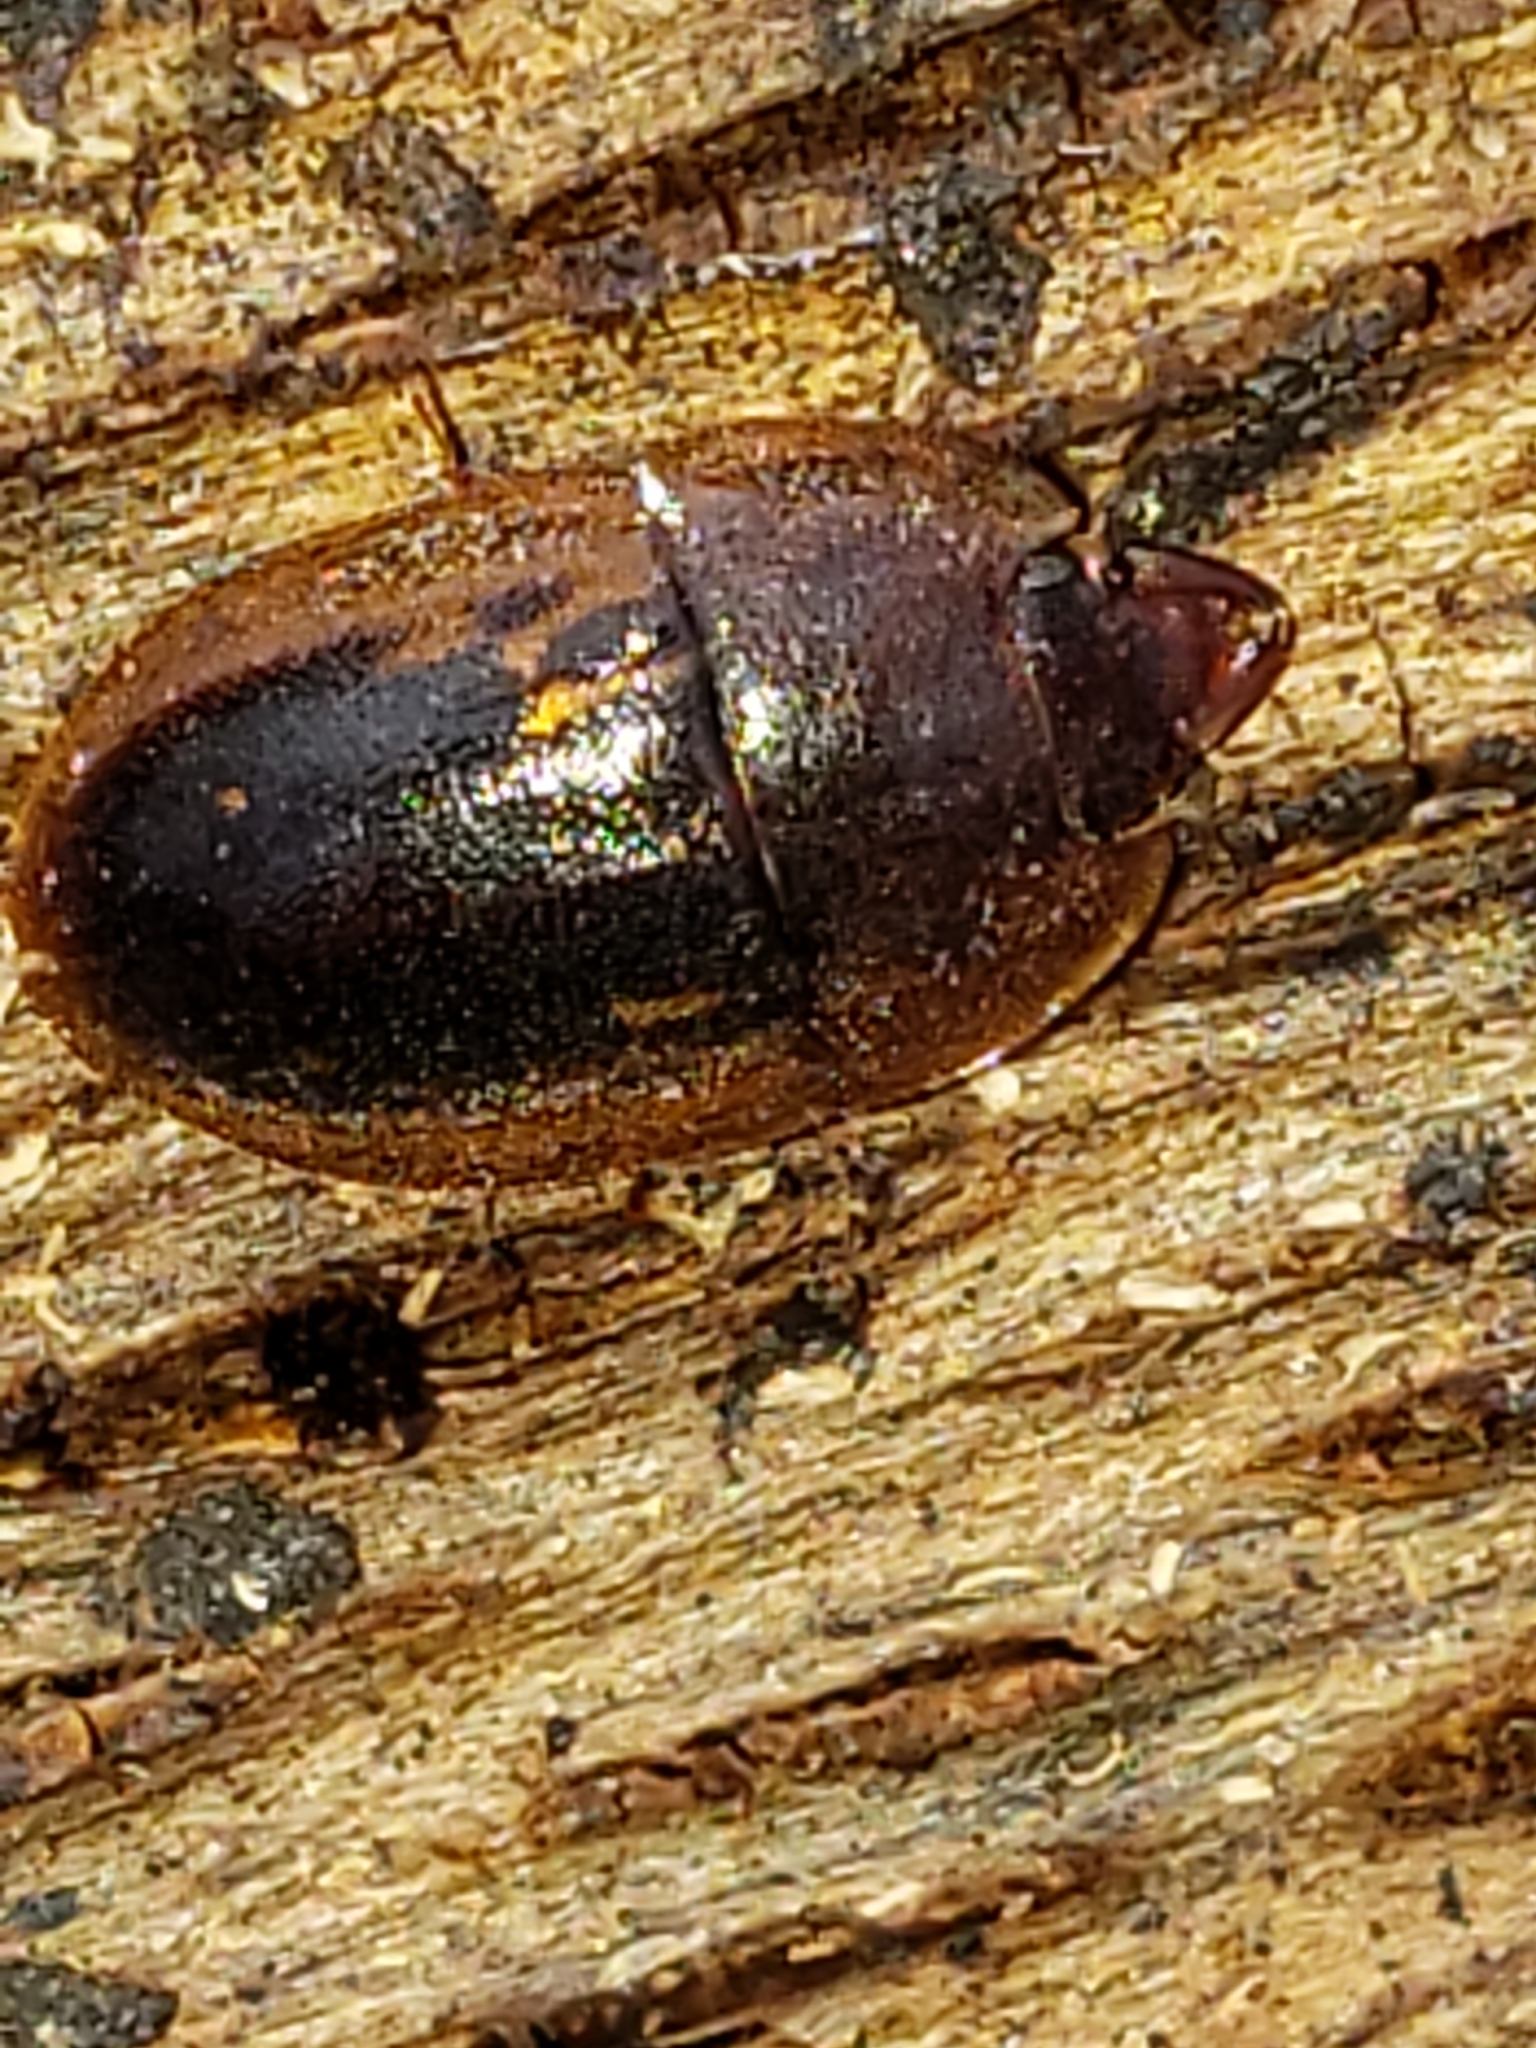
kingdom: Animalia
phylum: Arthropoda
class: Insecta
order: Coleoptera
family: Nitidulidae
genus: Prometopia
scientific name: Prometopia sexmaculata
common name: Six-spotted sap-feeding beetle
